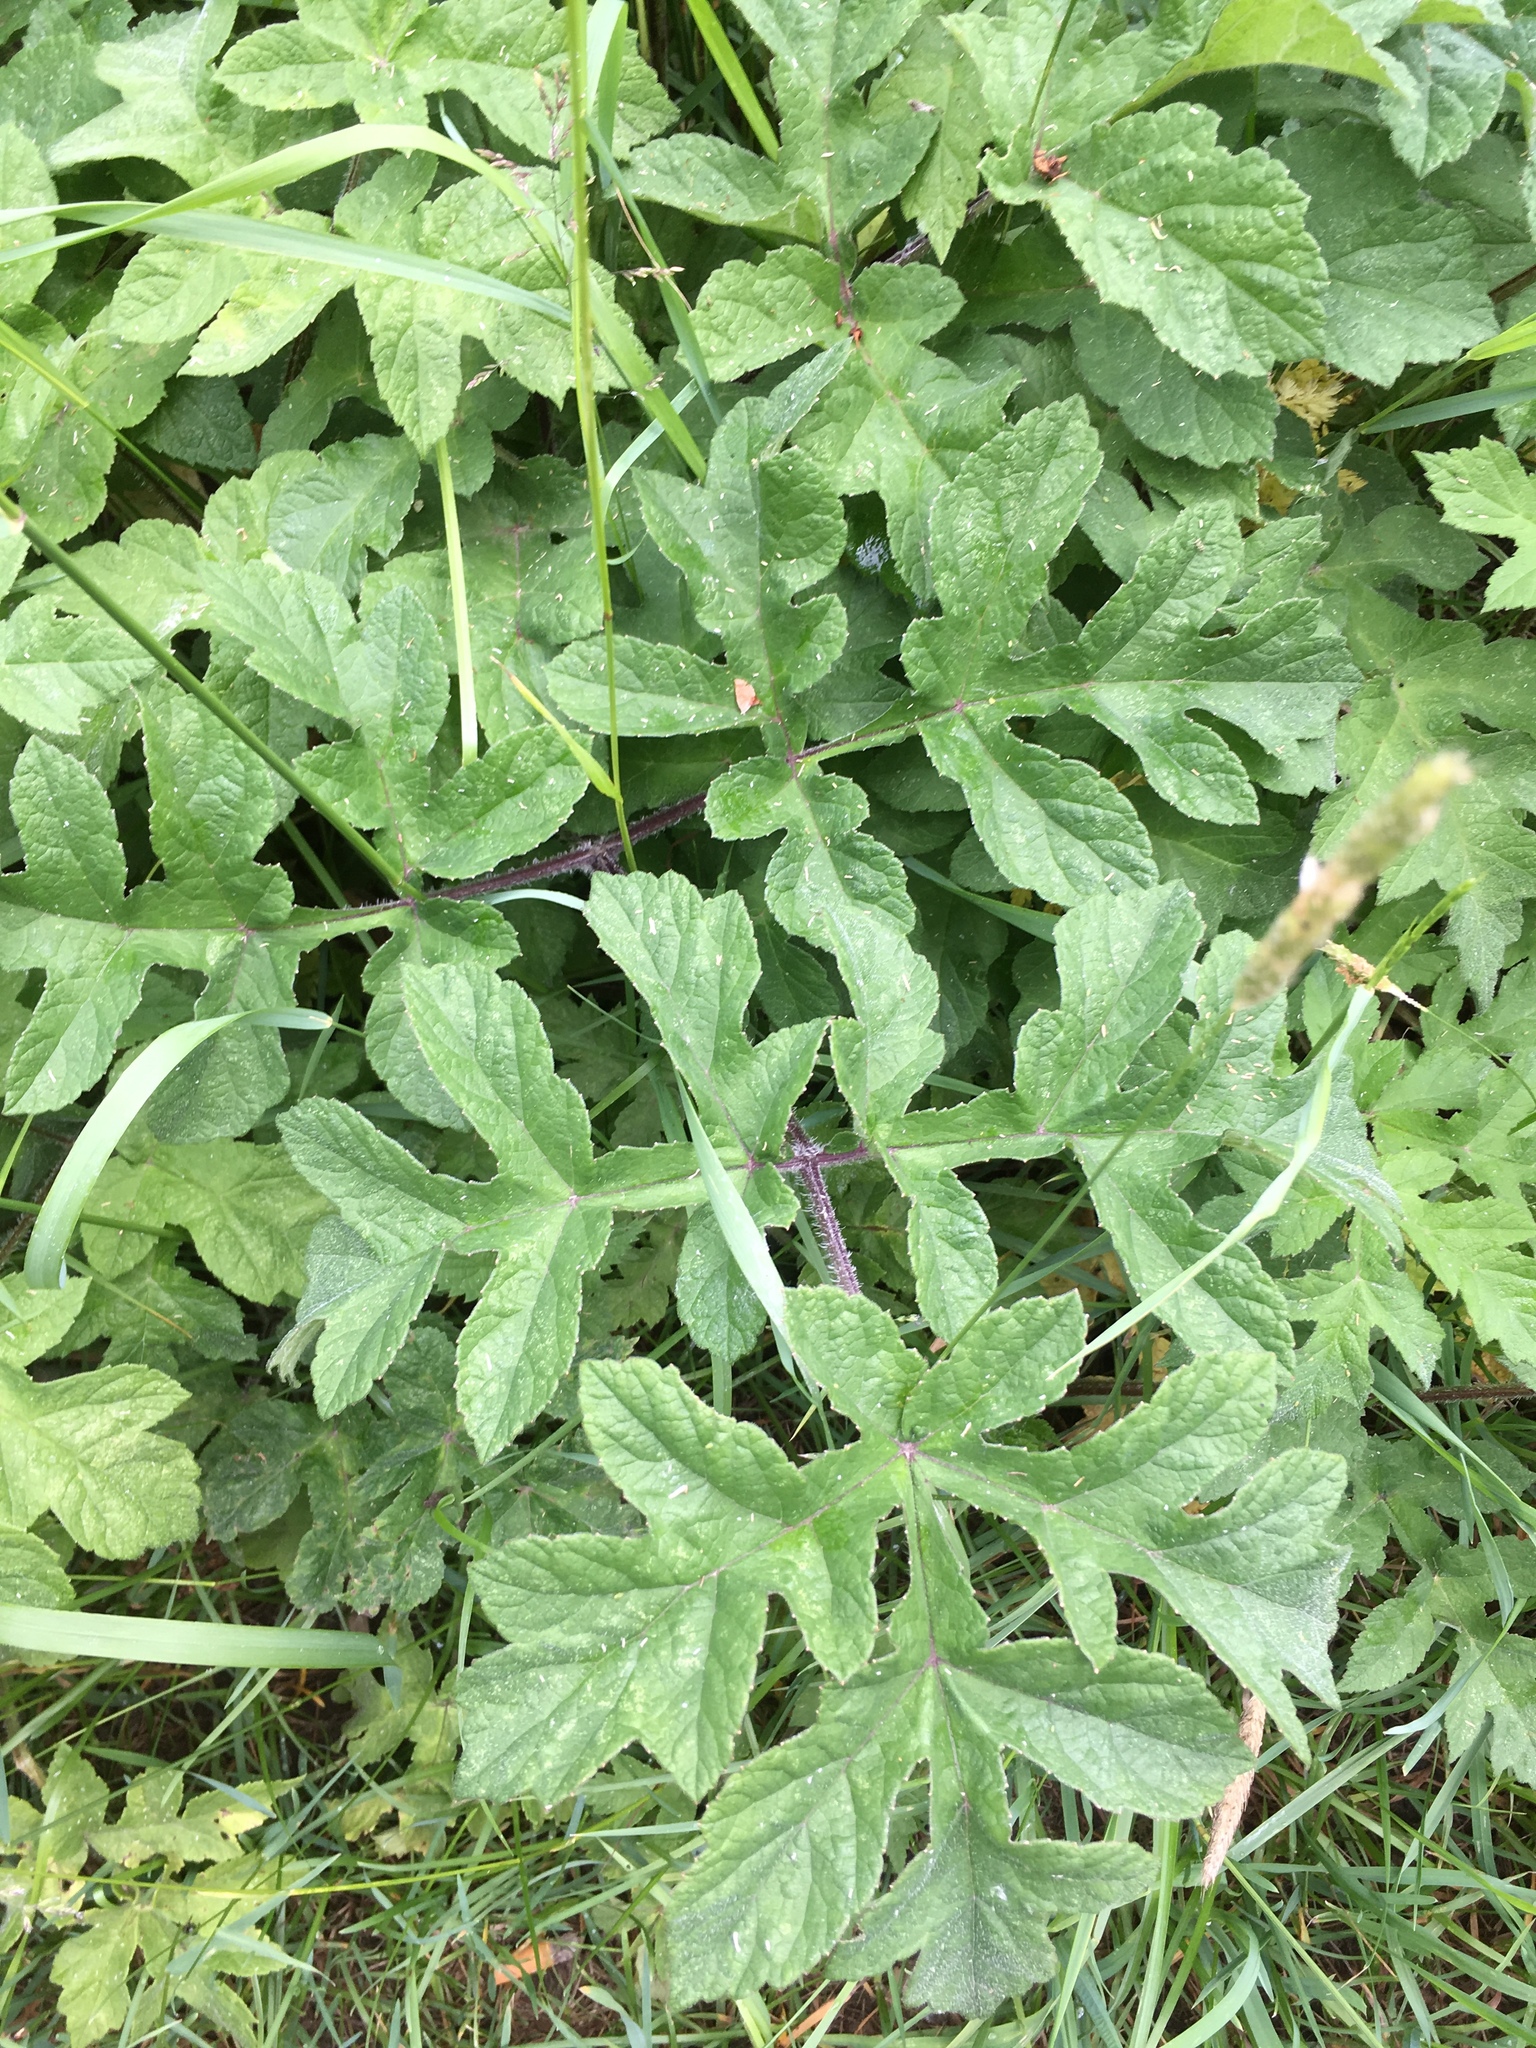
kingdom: Plantae
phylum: Tracheophyta
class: Magnoliopsida
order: Apiales
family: Apiaceae
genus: Heracleum
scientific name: Heracleum sphondylium
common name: Hogweed
